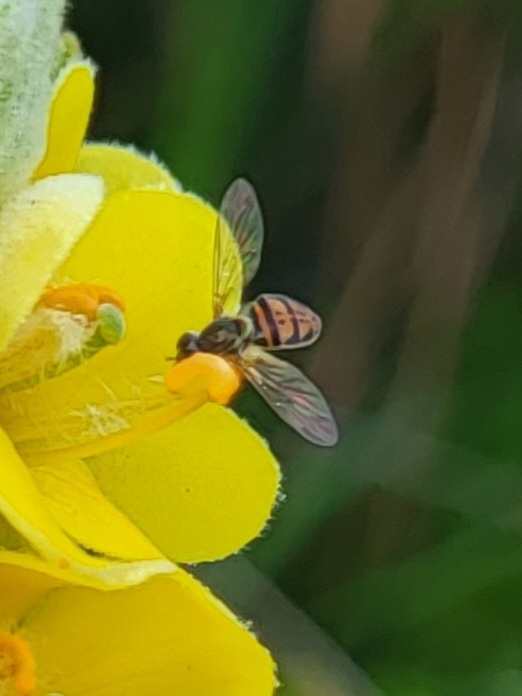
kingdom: Animalia
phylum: Arthropoda
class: Insecta
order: Diptera
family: Syrphidae
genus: Toxomerus
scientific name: Toxomerus marginatus
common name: Syrphid fly
